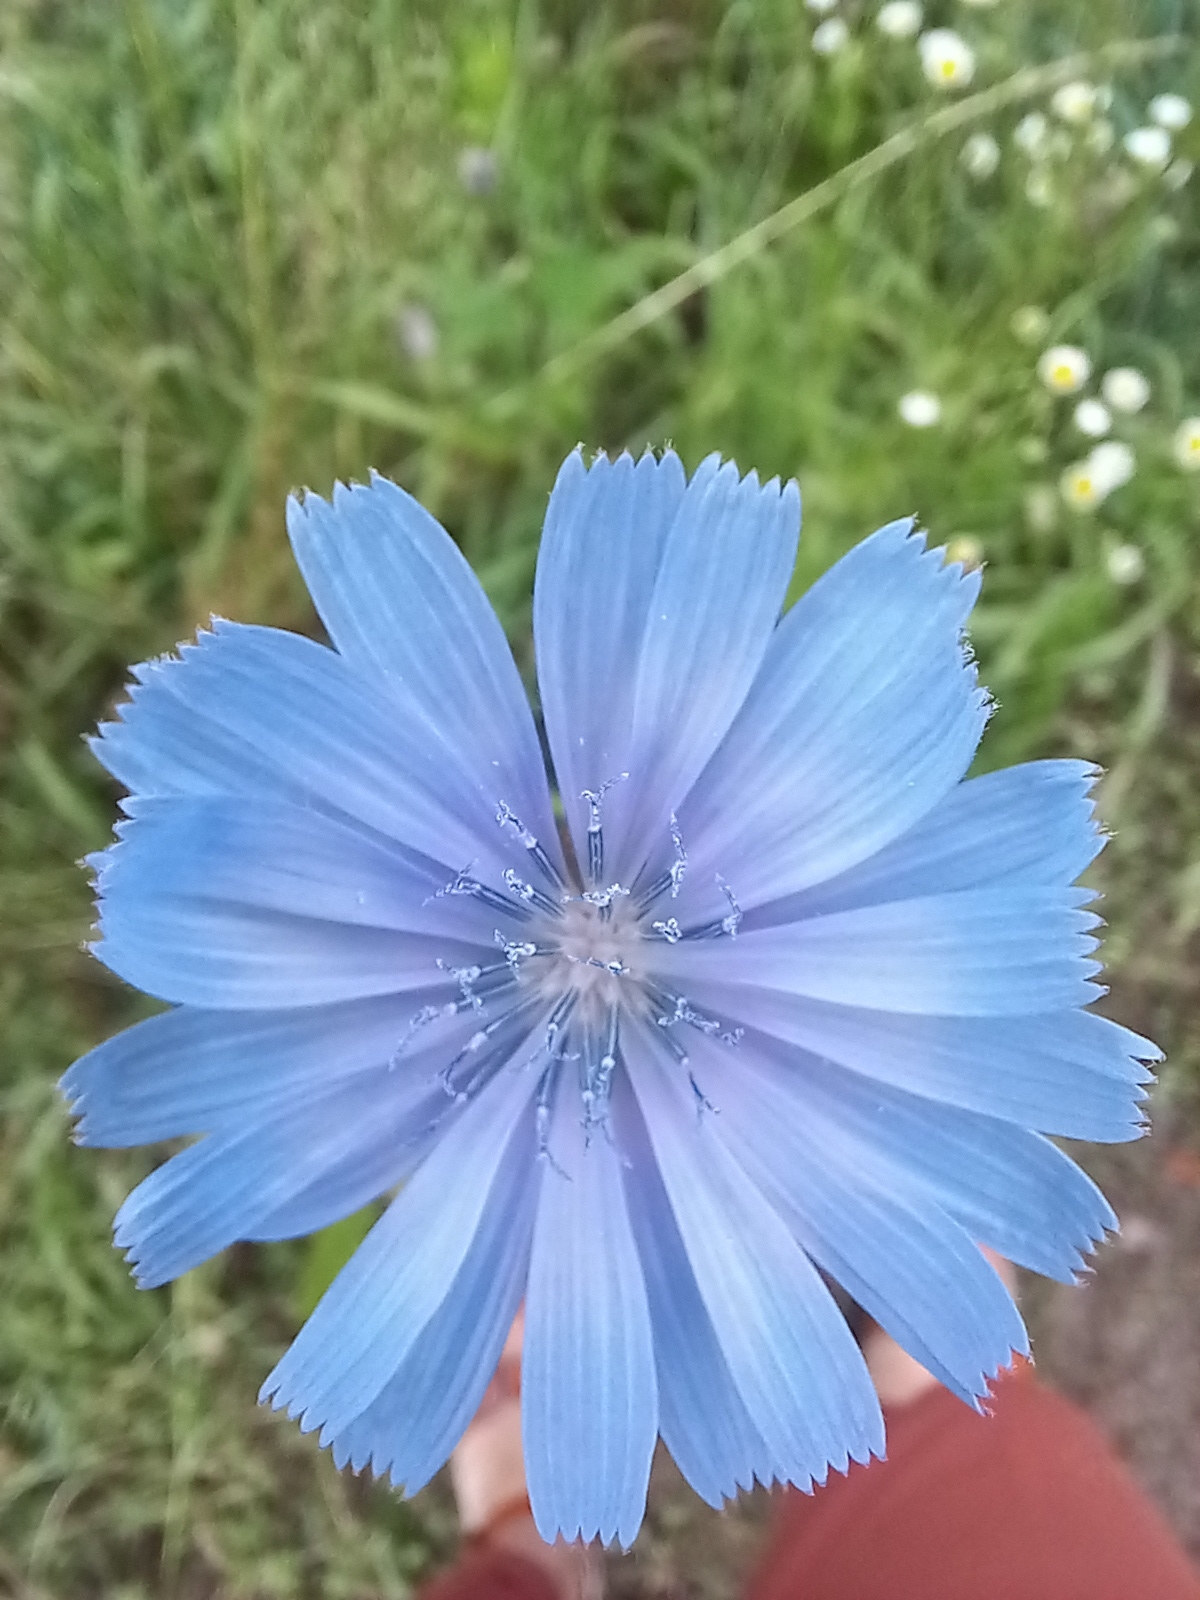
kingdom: Plantae
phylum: Tracheophyta
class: Magnoliopsida
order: Asterales
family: Asteraceae
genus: Cichorium
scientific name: Cichorium intybus
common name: Chicory
